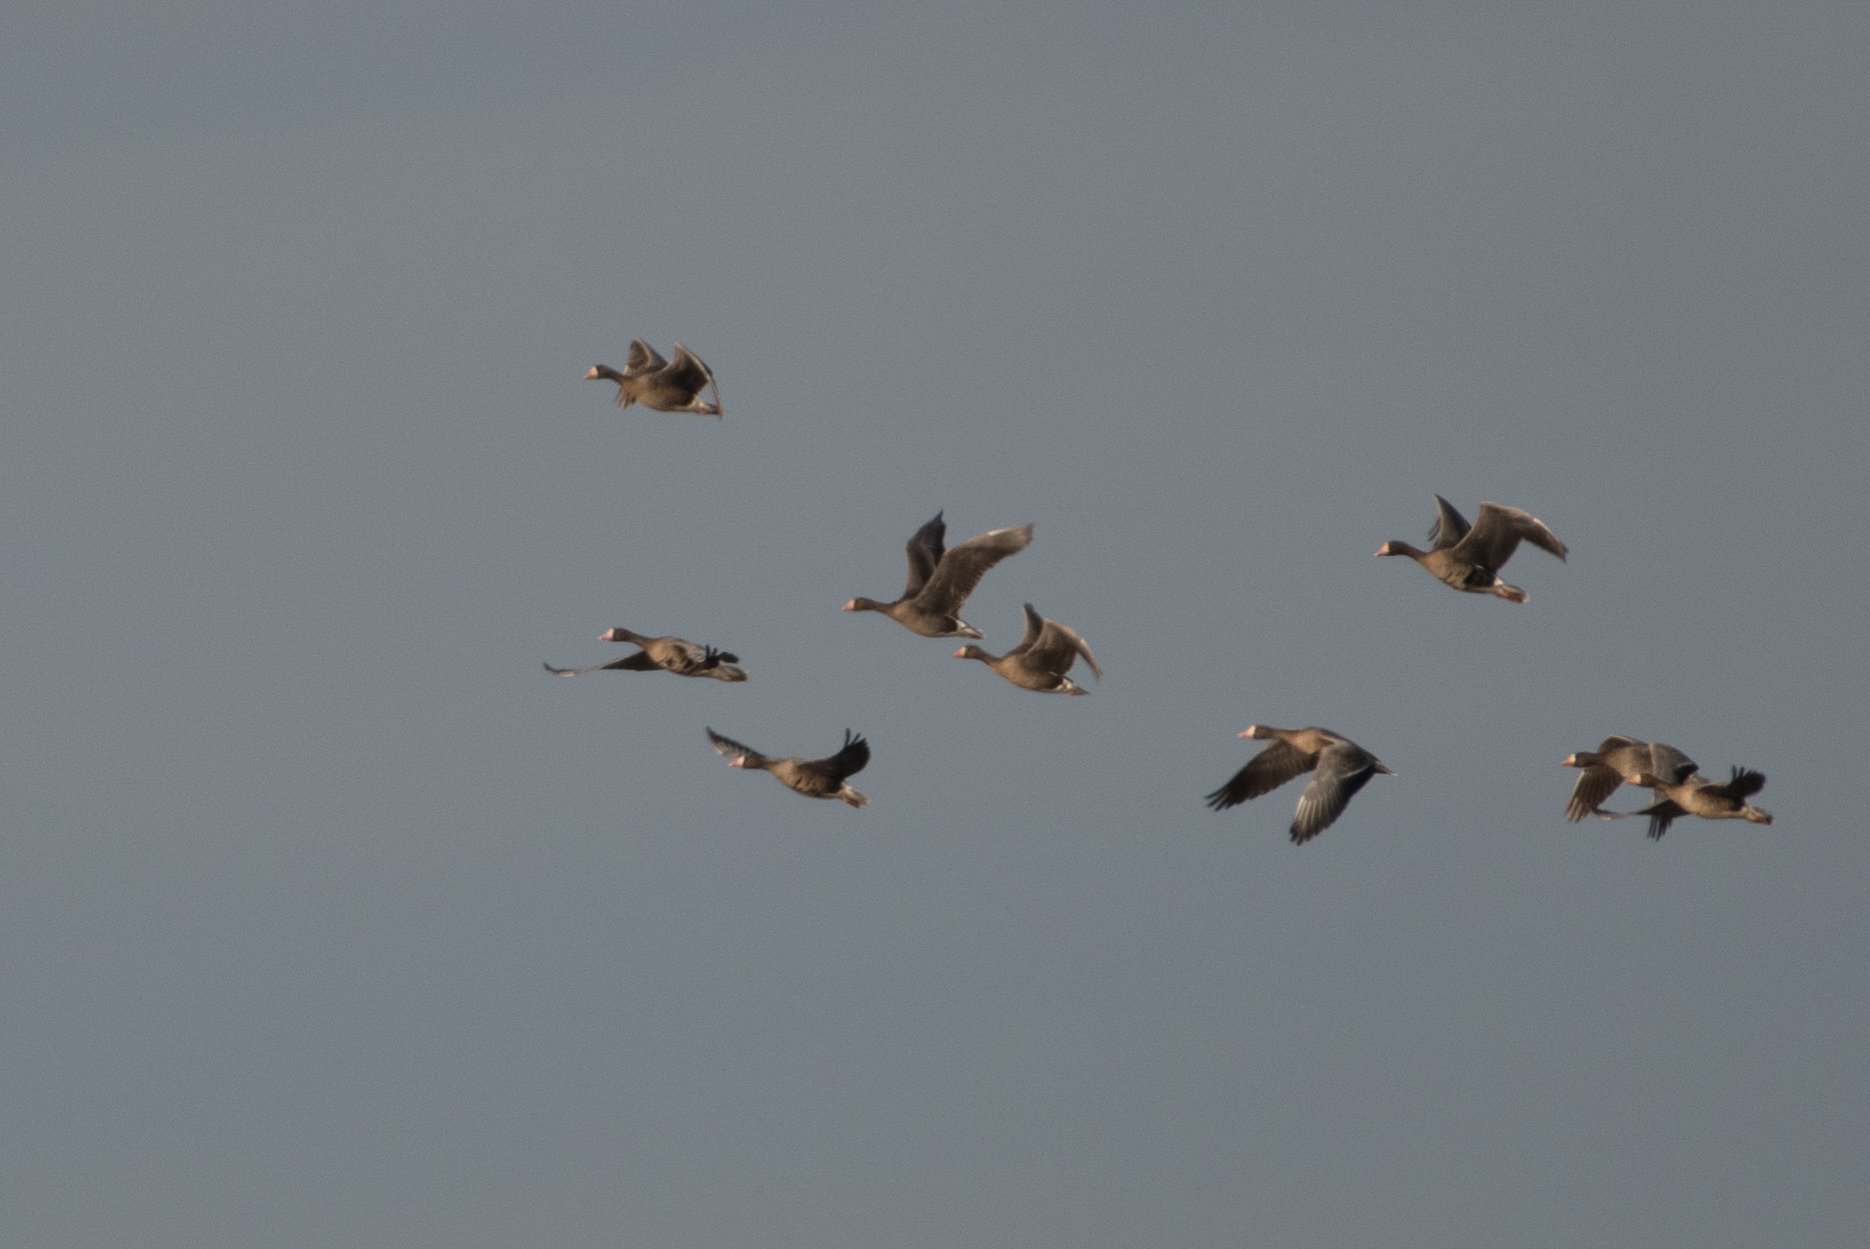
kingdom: Animalia
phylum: Chordata
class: Aves
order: Anseriformes
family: Anatidae
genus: Anser
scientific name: Anser albifrons
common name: Greater white-fronted goose
